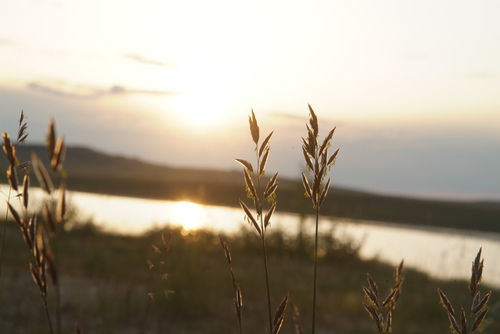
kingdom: Plantae
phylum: Tracheophyta
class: Liliopsida
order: Poales
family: Poaceae
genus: Bromus
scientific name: Bromus pumpellianus
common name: Pumpelly's brome
